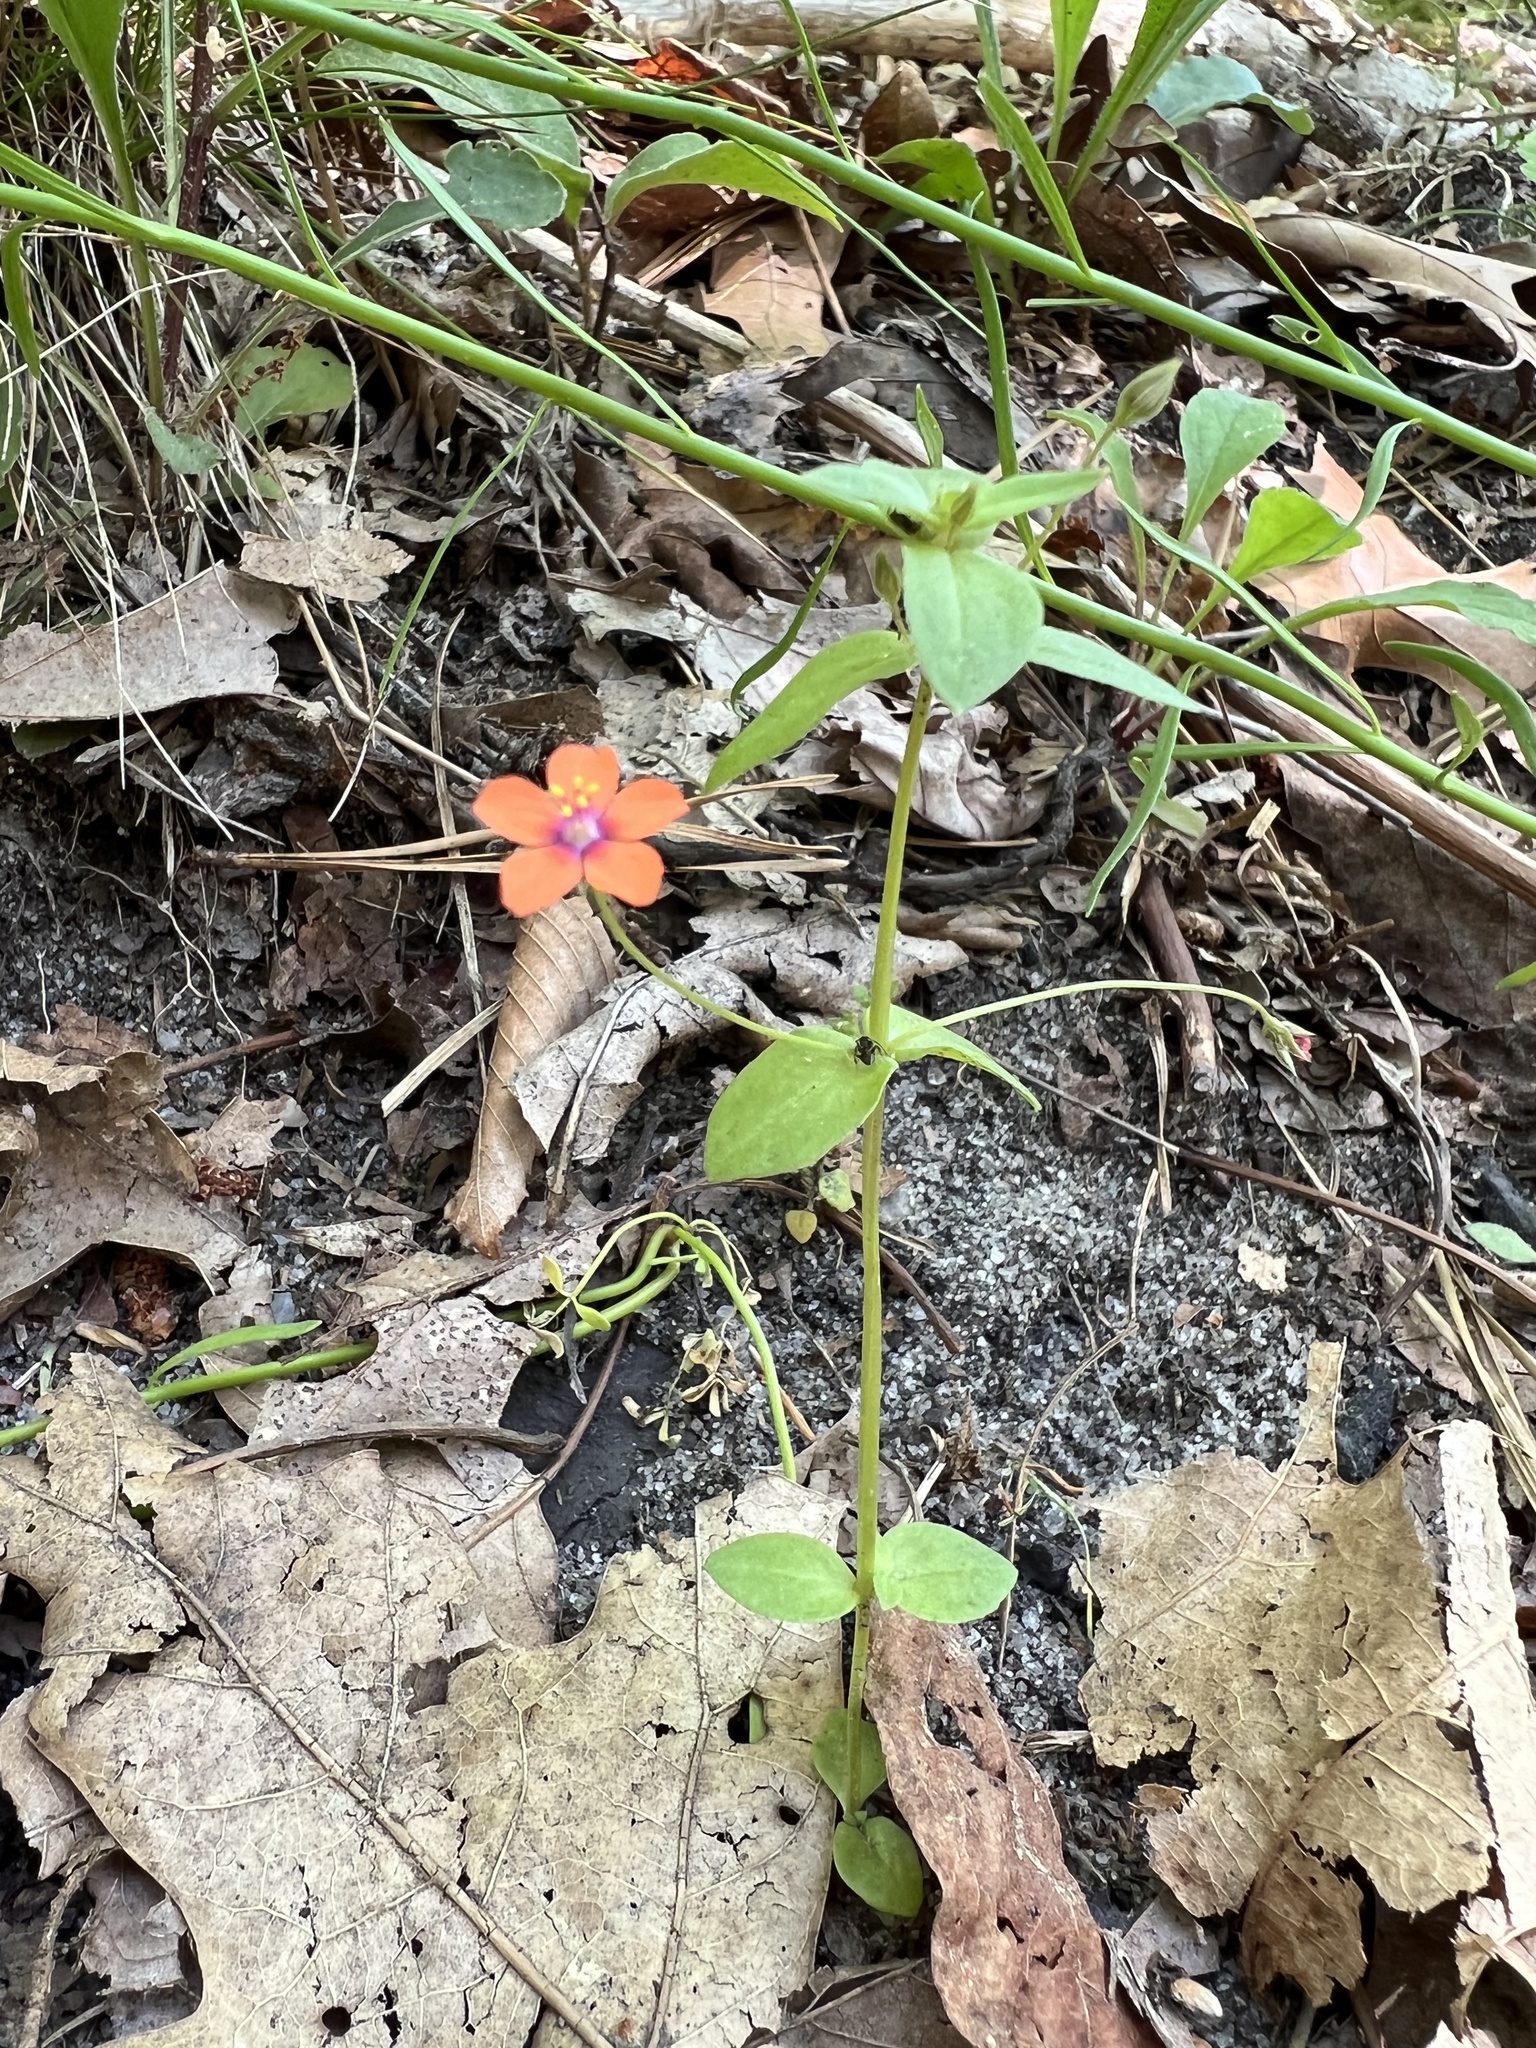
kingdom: Plantae
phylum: Tracheophyta
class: Magnoliopsida
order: Ericales
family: Primulaceae
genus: Lysimachia
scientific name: Lysimachia arvensis
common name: Scarlet pimpernel
